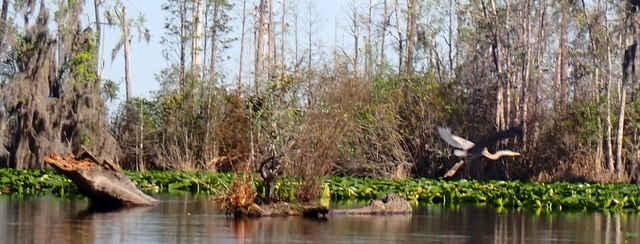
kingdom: Animalia
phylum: Chordata
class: Aves
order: Pelecaniformes
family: Ardeidae
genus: Ardea
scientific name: Ardea herodias
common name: Great blue heron
